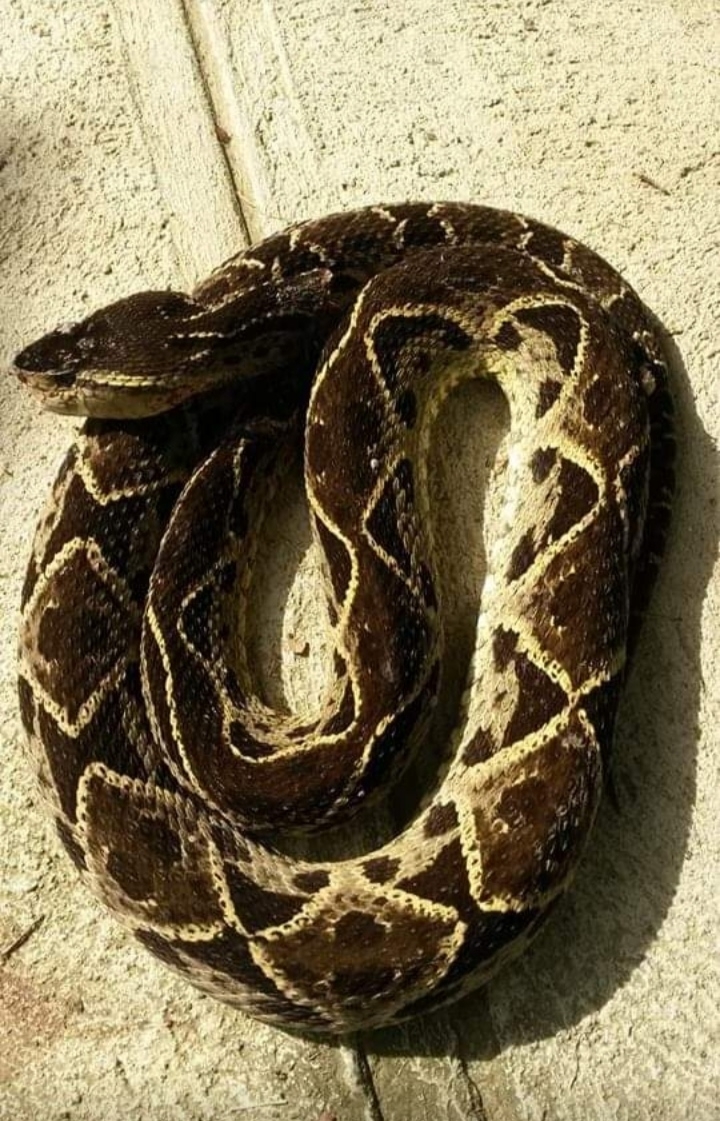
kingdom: Animalia
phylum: Chordata
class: Squamata
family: Viperidae
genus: Bothrops
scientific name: Bothrops asper
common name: Terciopelo
